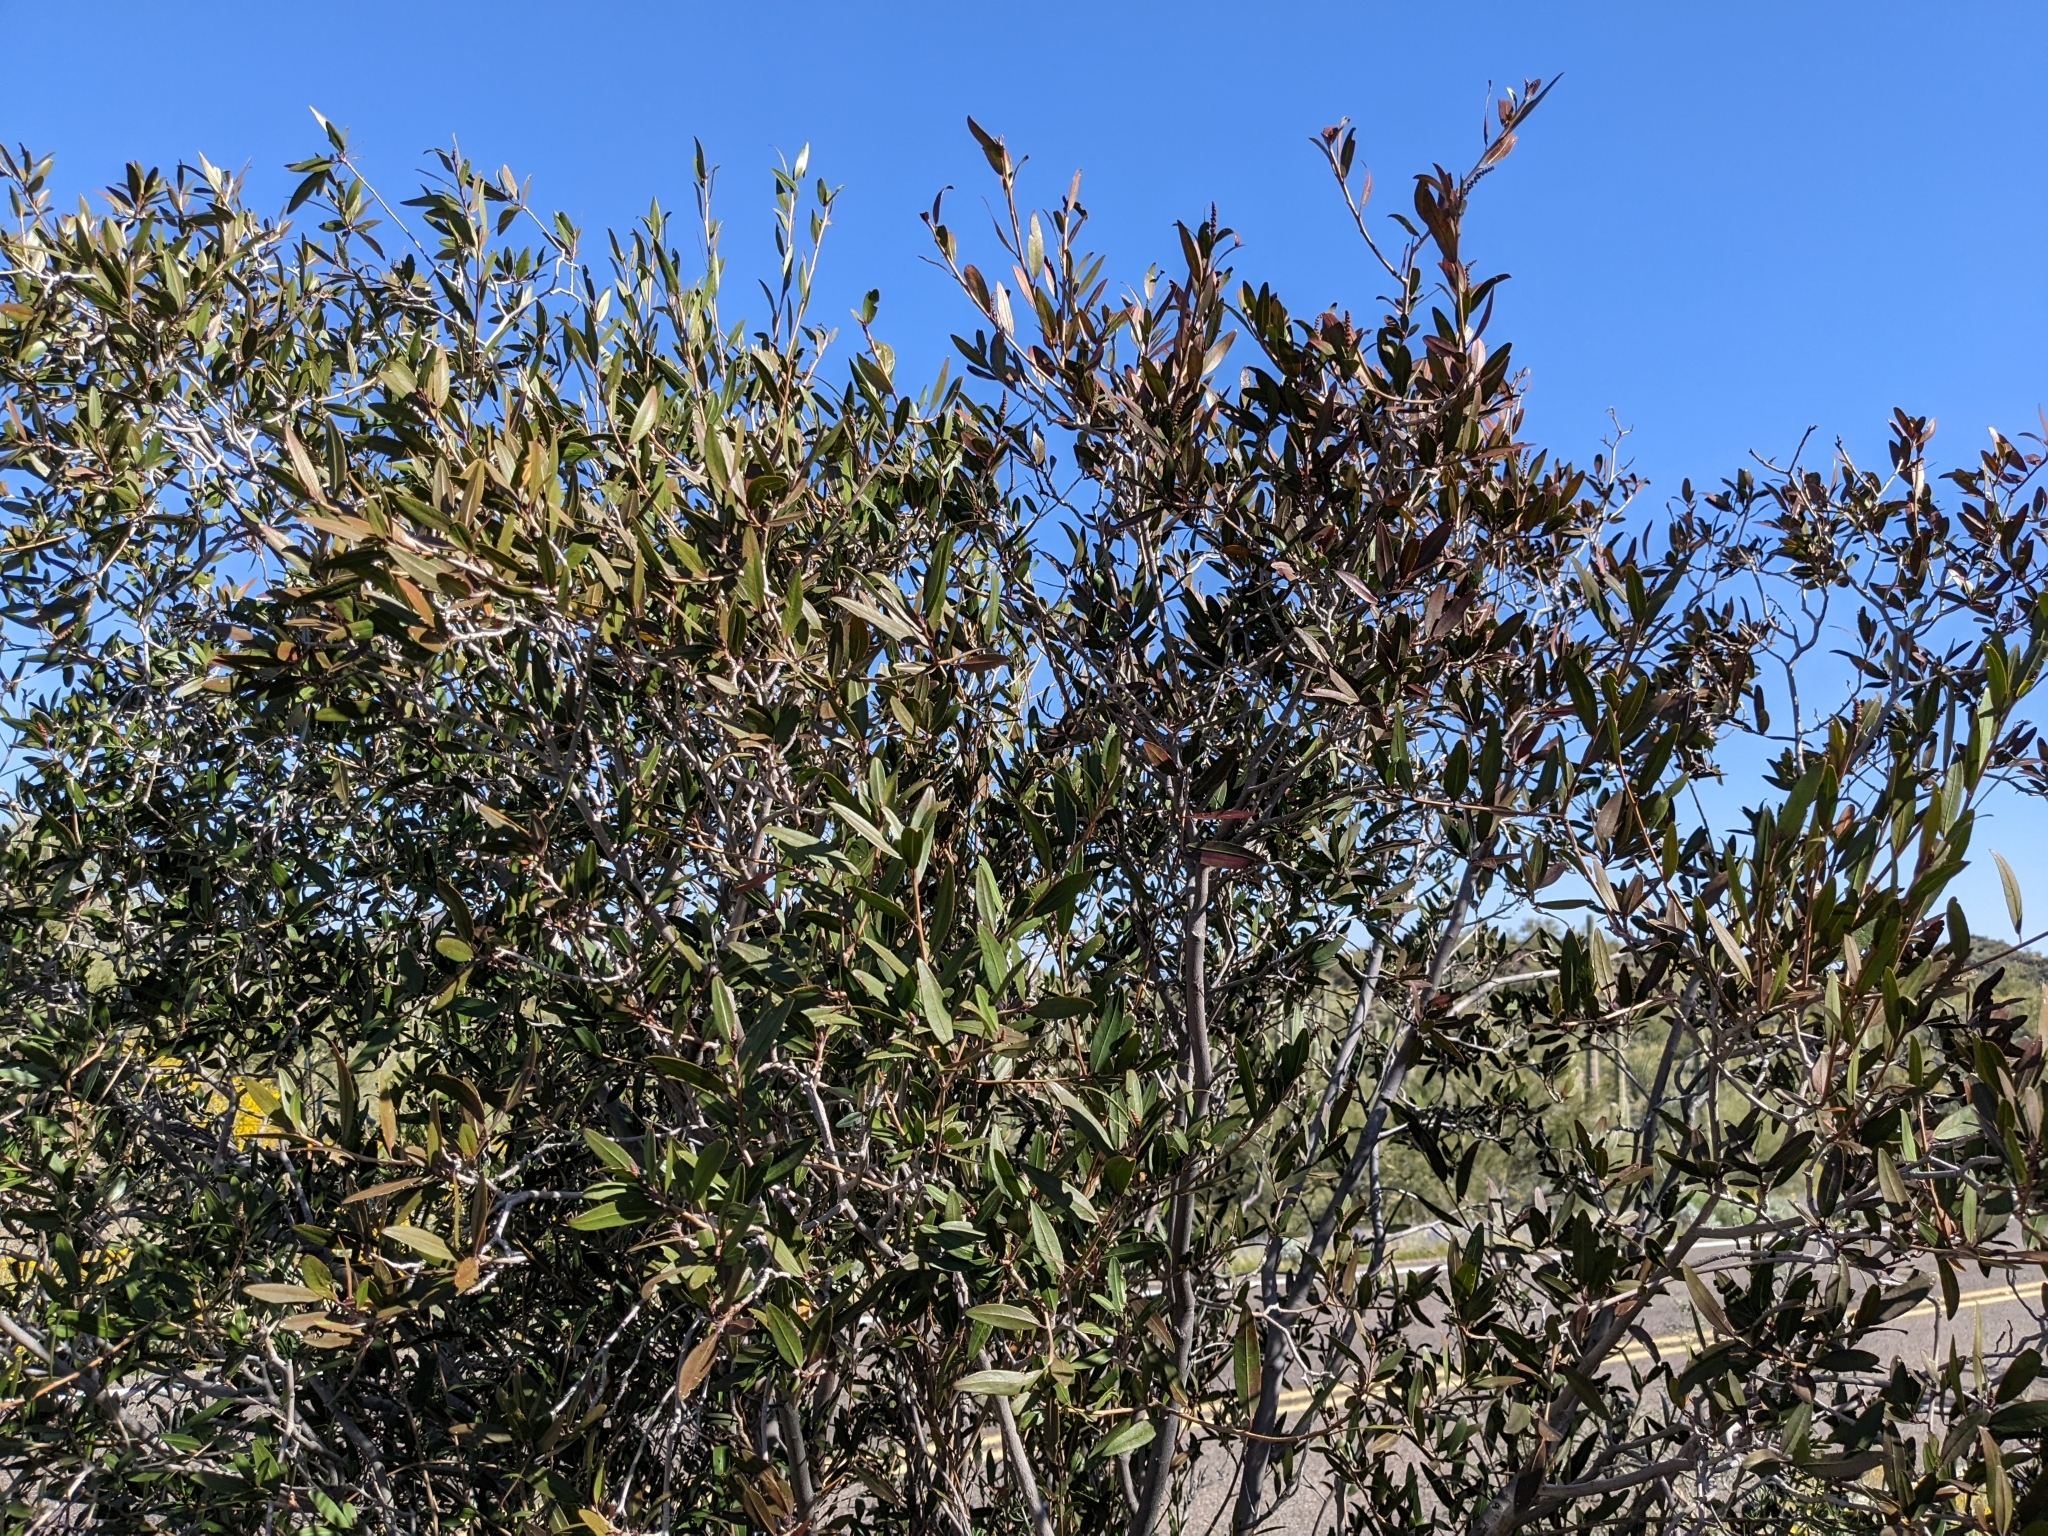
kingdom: Plantae
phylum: Tracheophyta
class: Magnoliopsida
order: Malpighiales
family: Euphorbiaceae
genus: Pleradenophora
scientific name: Pleradenophora bilocularis
